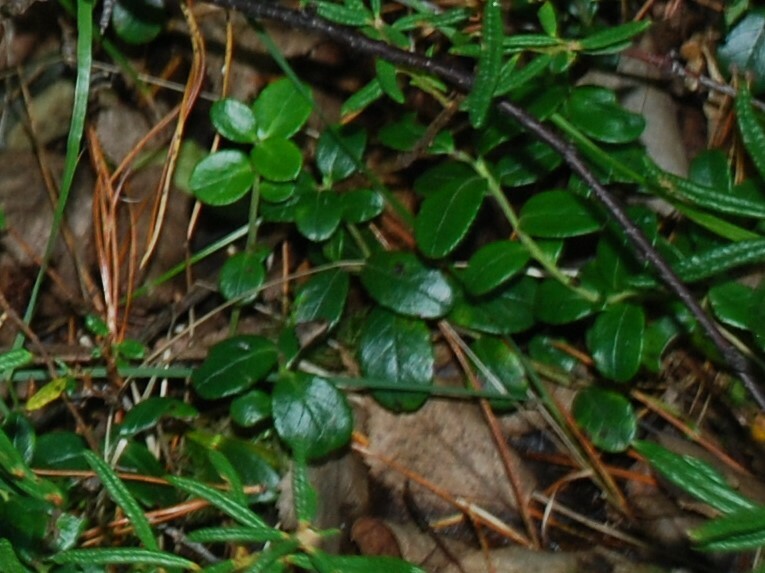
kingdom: Plantae
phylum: Tracheophyta
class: Magnoliopsida
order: Ericales
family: Ericaceae
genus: Vaccinium
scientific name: Vaccinium vitis-idaea
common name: Cowberry
